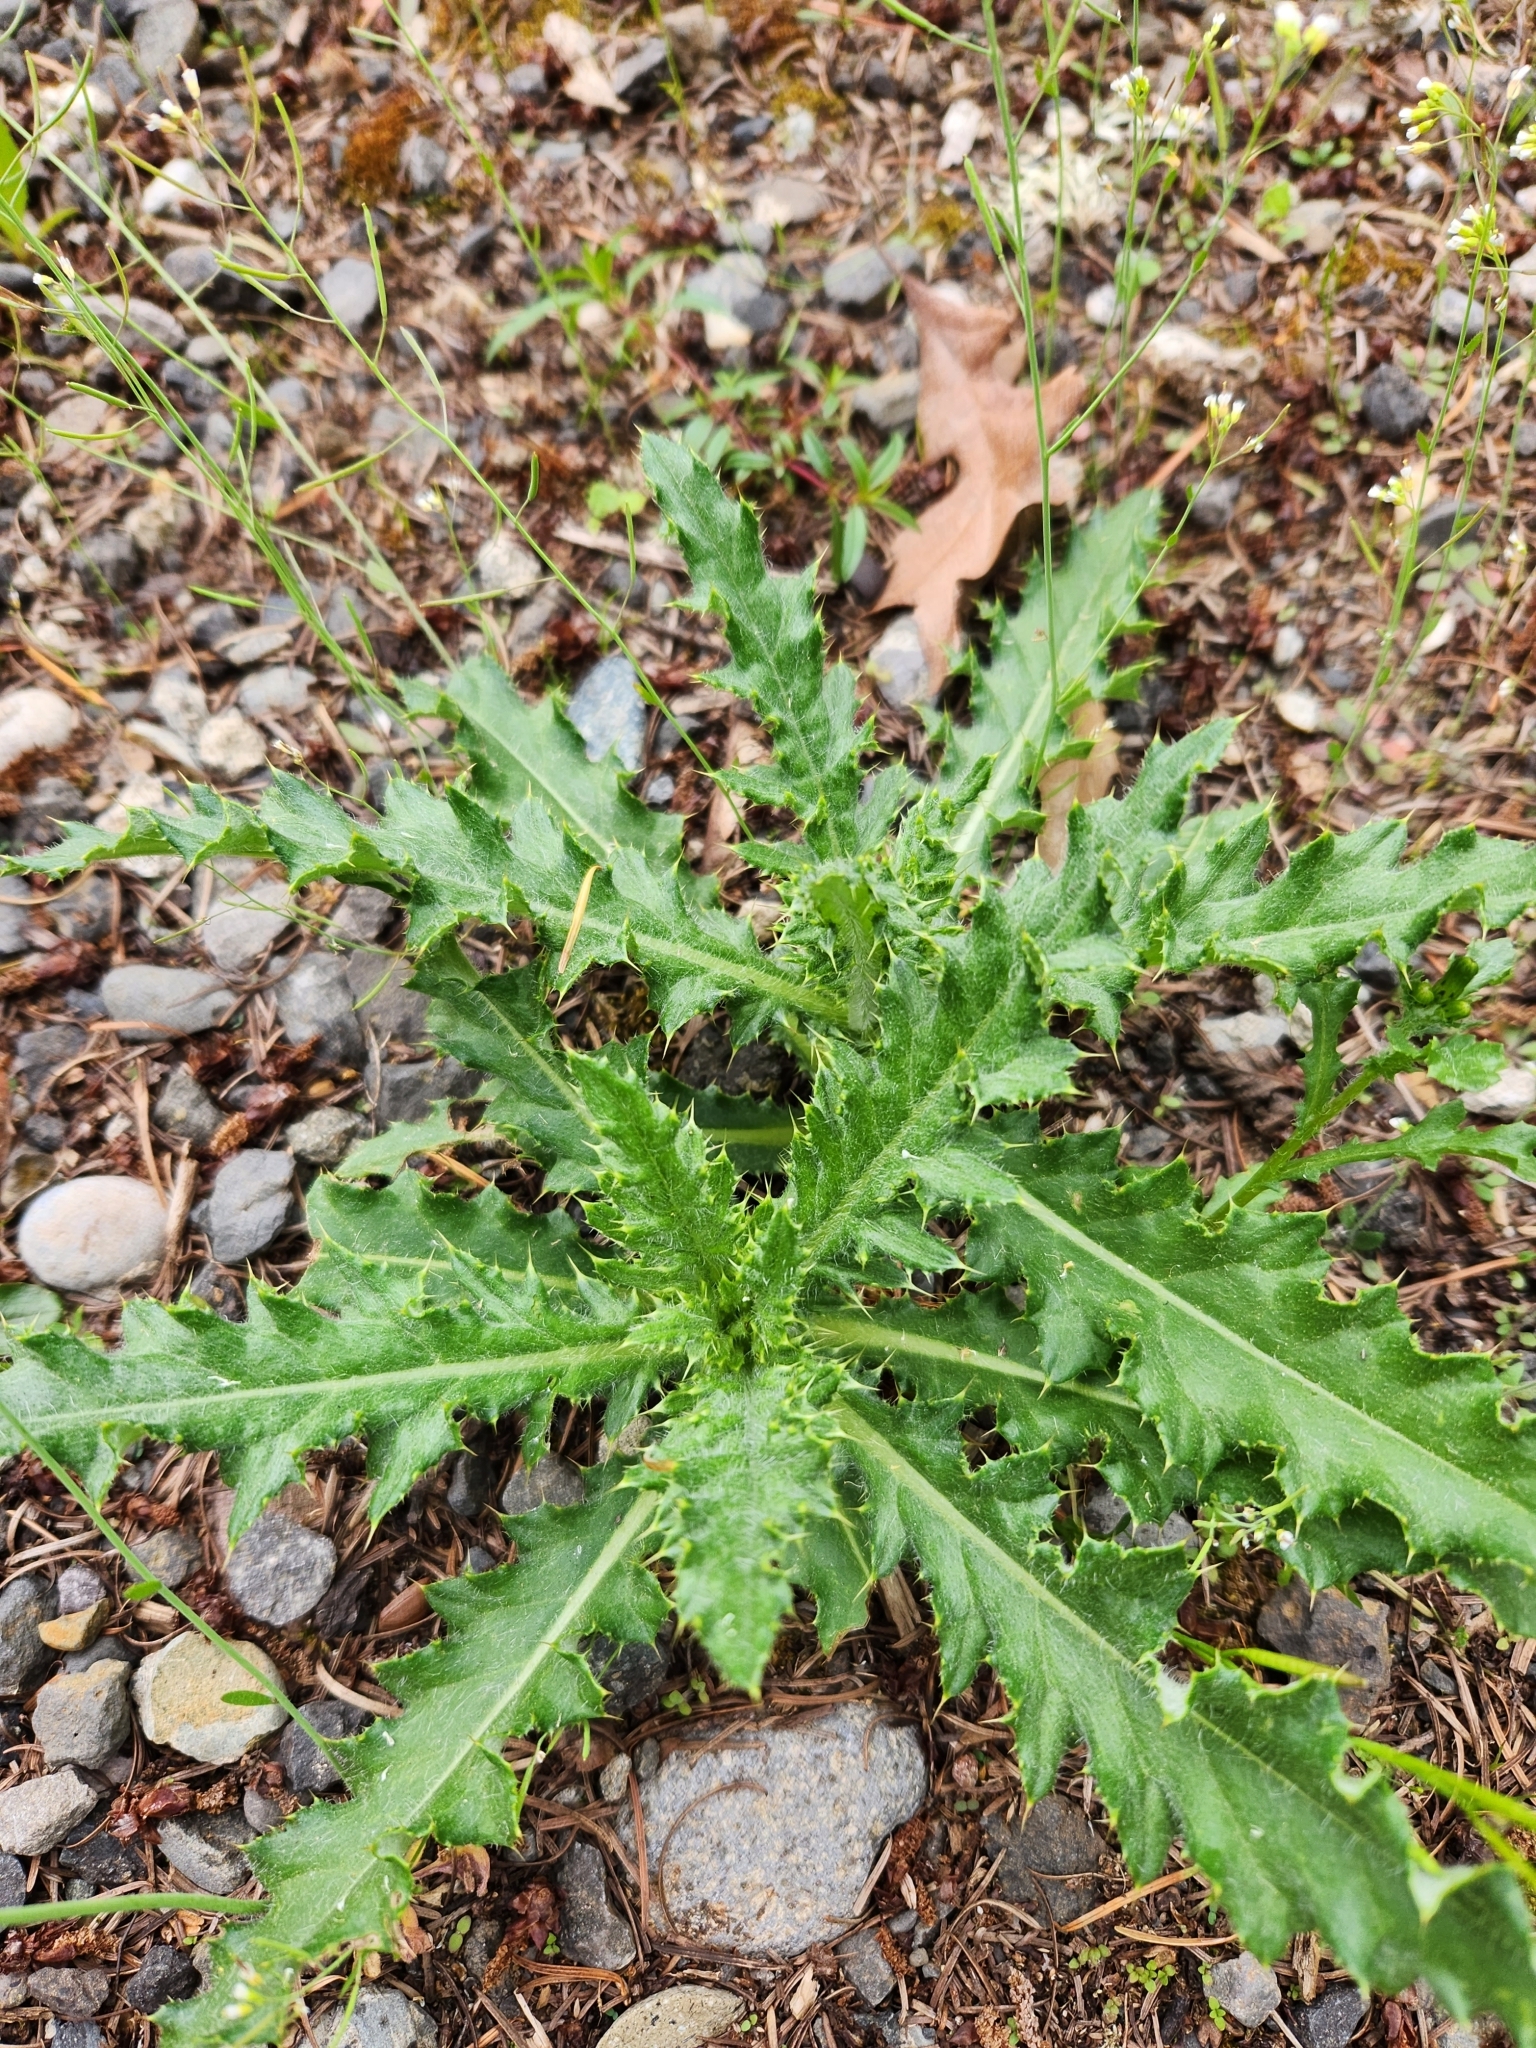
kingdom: Plantae
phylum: Tracheophyta
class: Magnoliopsida
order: Asterales
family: Asteraceae
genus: Cirsium
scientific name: Cirsium arvense
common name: Creeping thistle
